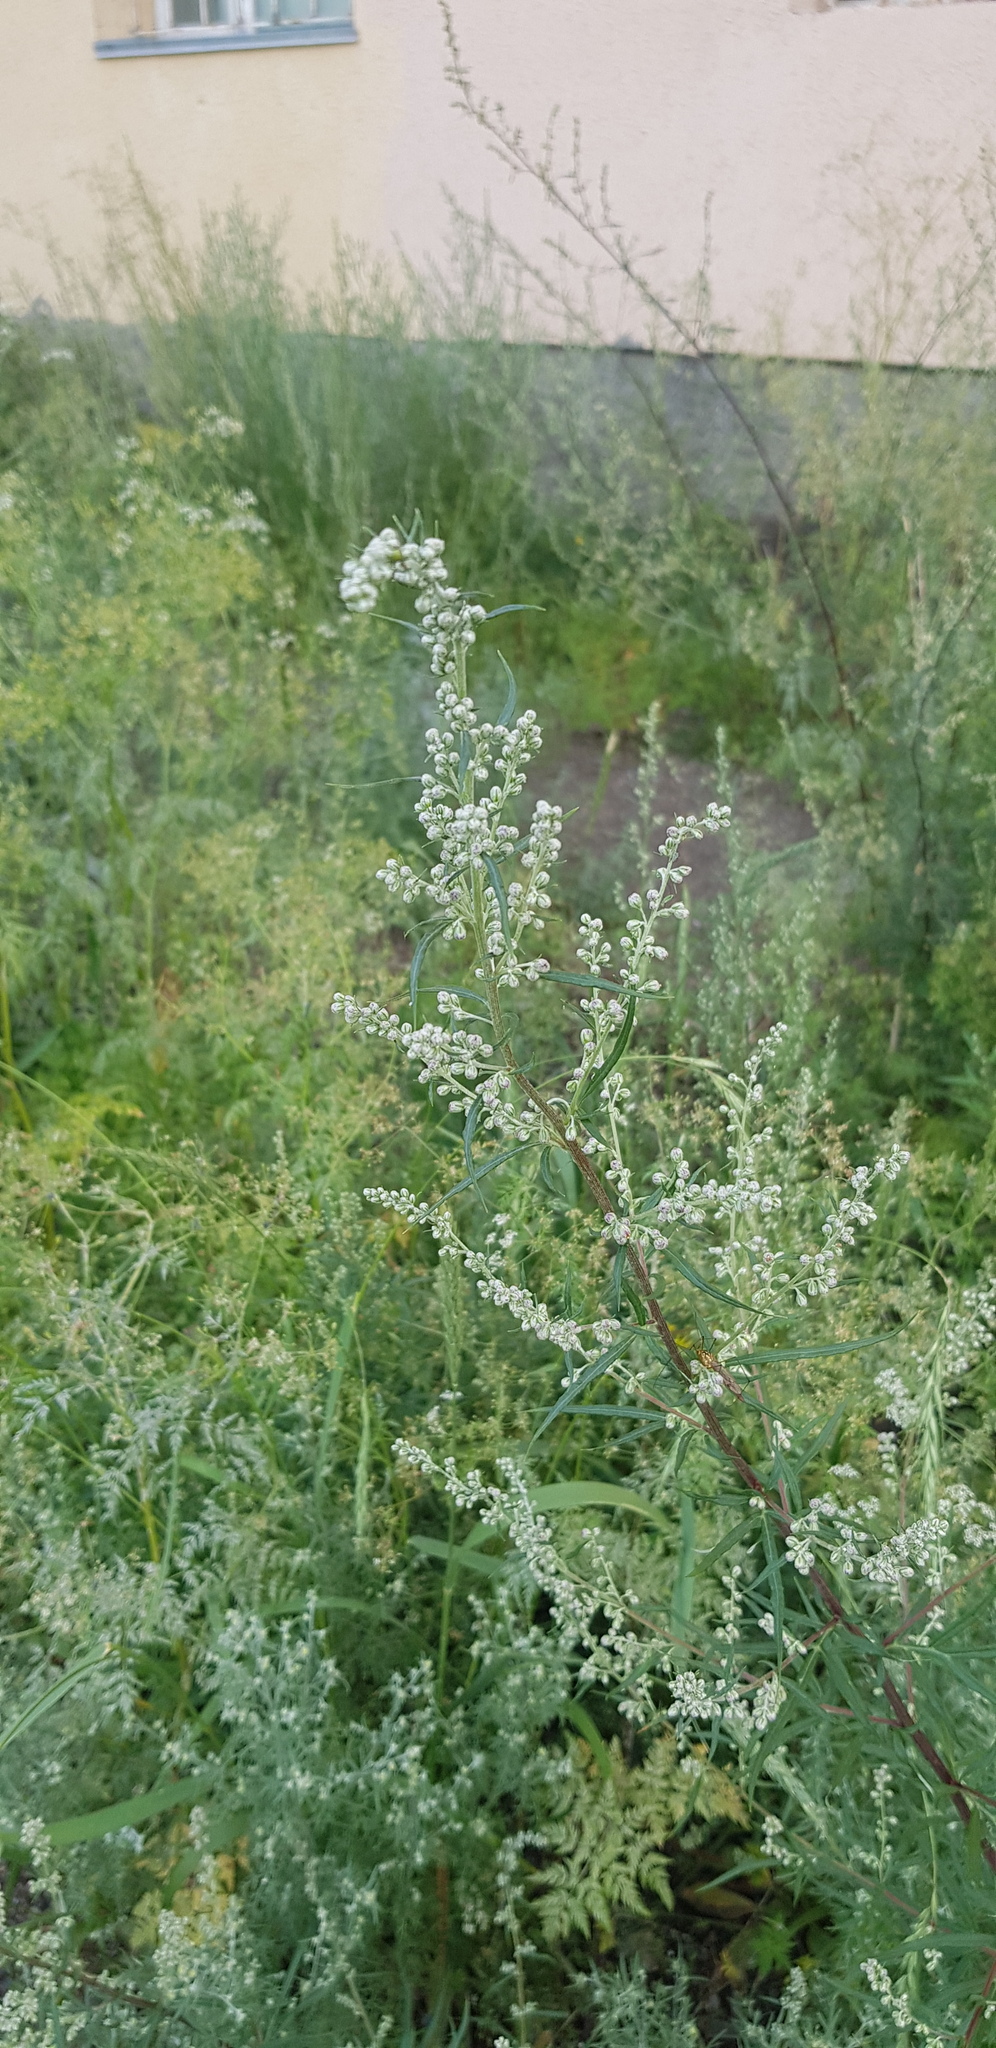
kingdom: Plantae
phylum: Tracheophyta
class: Magnoliopsida
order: Asterales
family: Asteraceae
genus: Artemisia
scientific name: Artemisia mongolica
